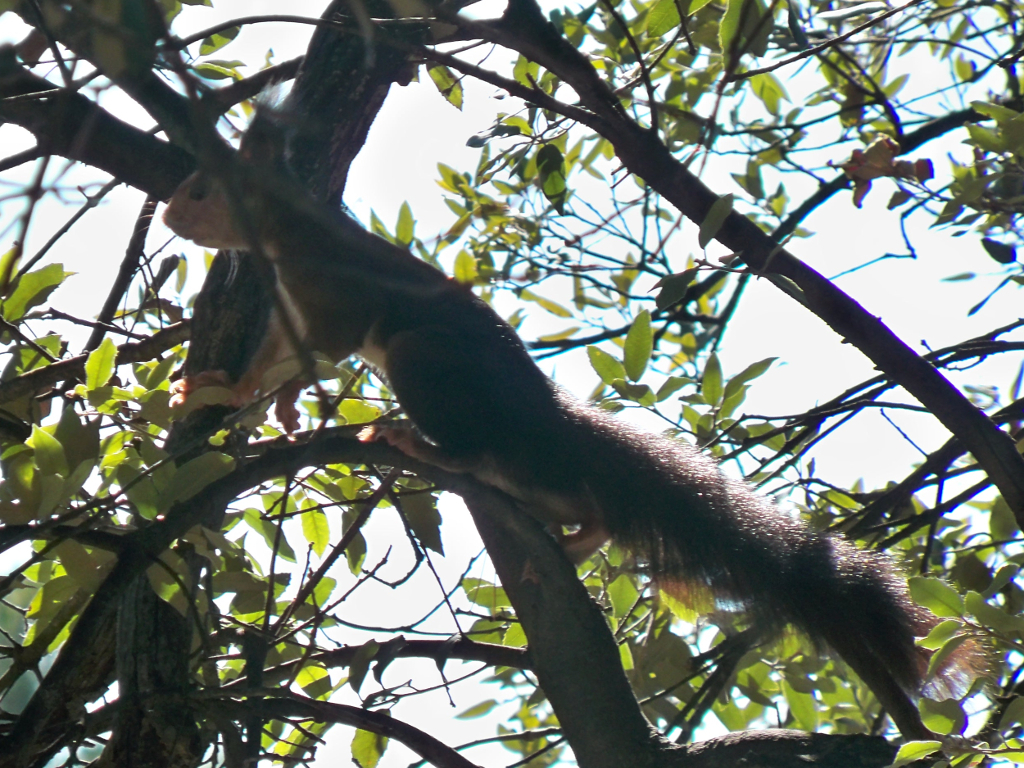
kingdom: Animalia
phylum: Chordata
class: Mammalia
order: Rodentia
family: Sciuridae
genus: Sciurus
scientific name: Sciurus vulgaris
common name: Eurasian red squirrel
